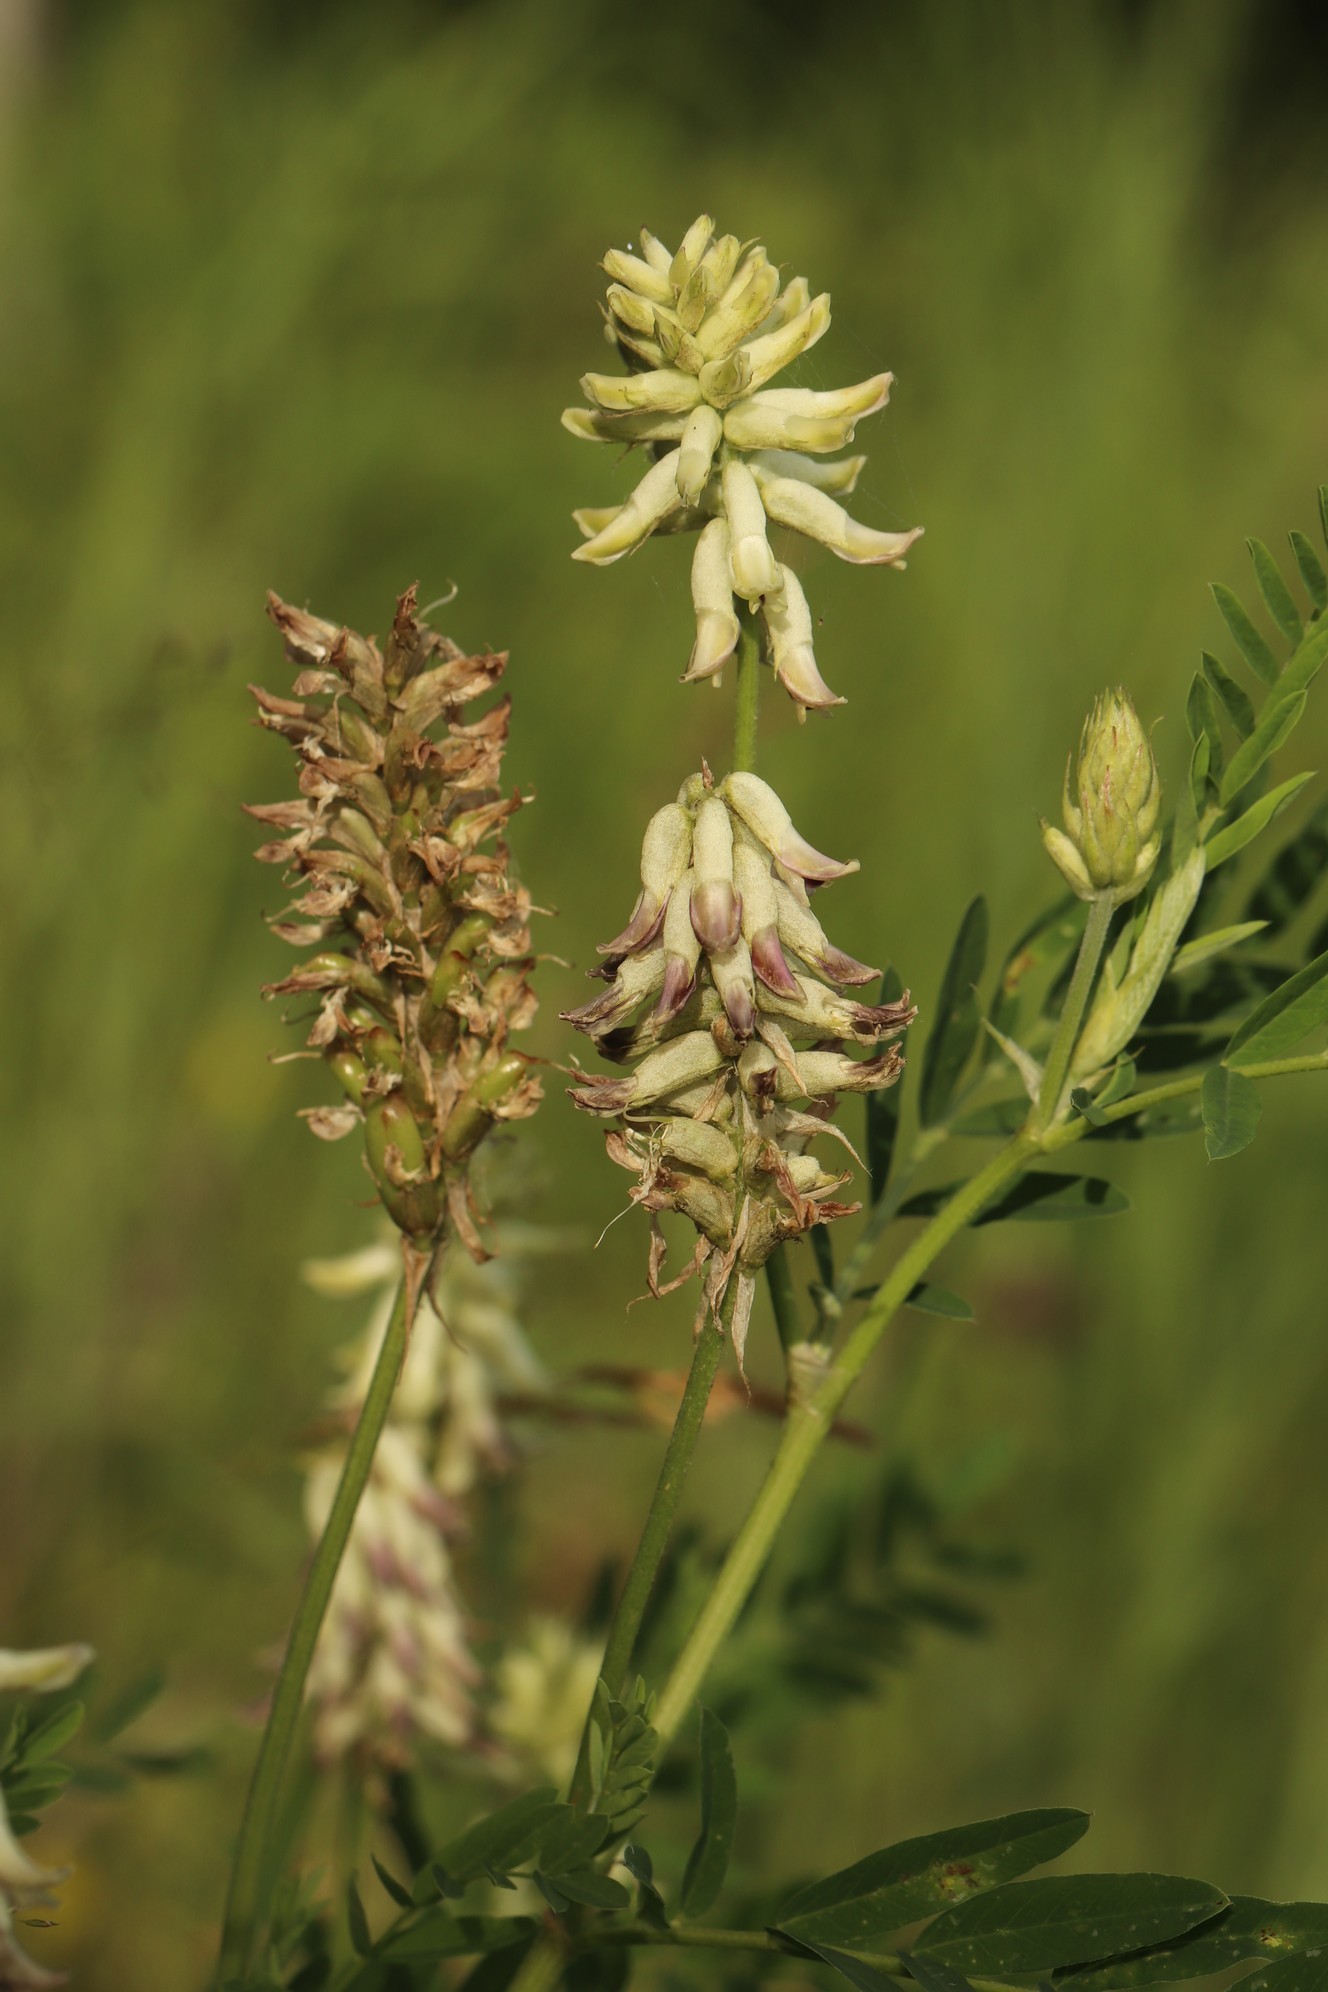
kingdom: Plantae
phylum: Tracheophyta
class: Magnoliopsida
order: Fabales
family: Fabaceae
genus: Astragalus
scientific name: Astragalus uliginosus
